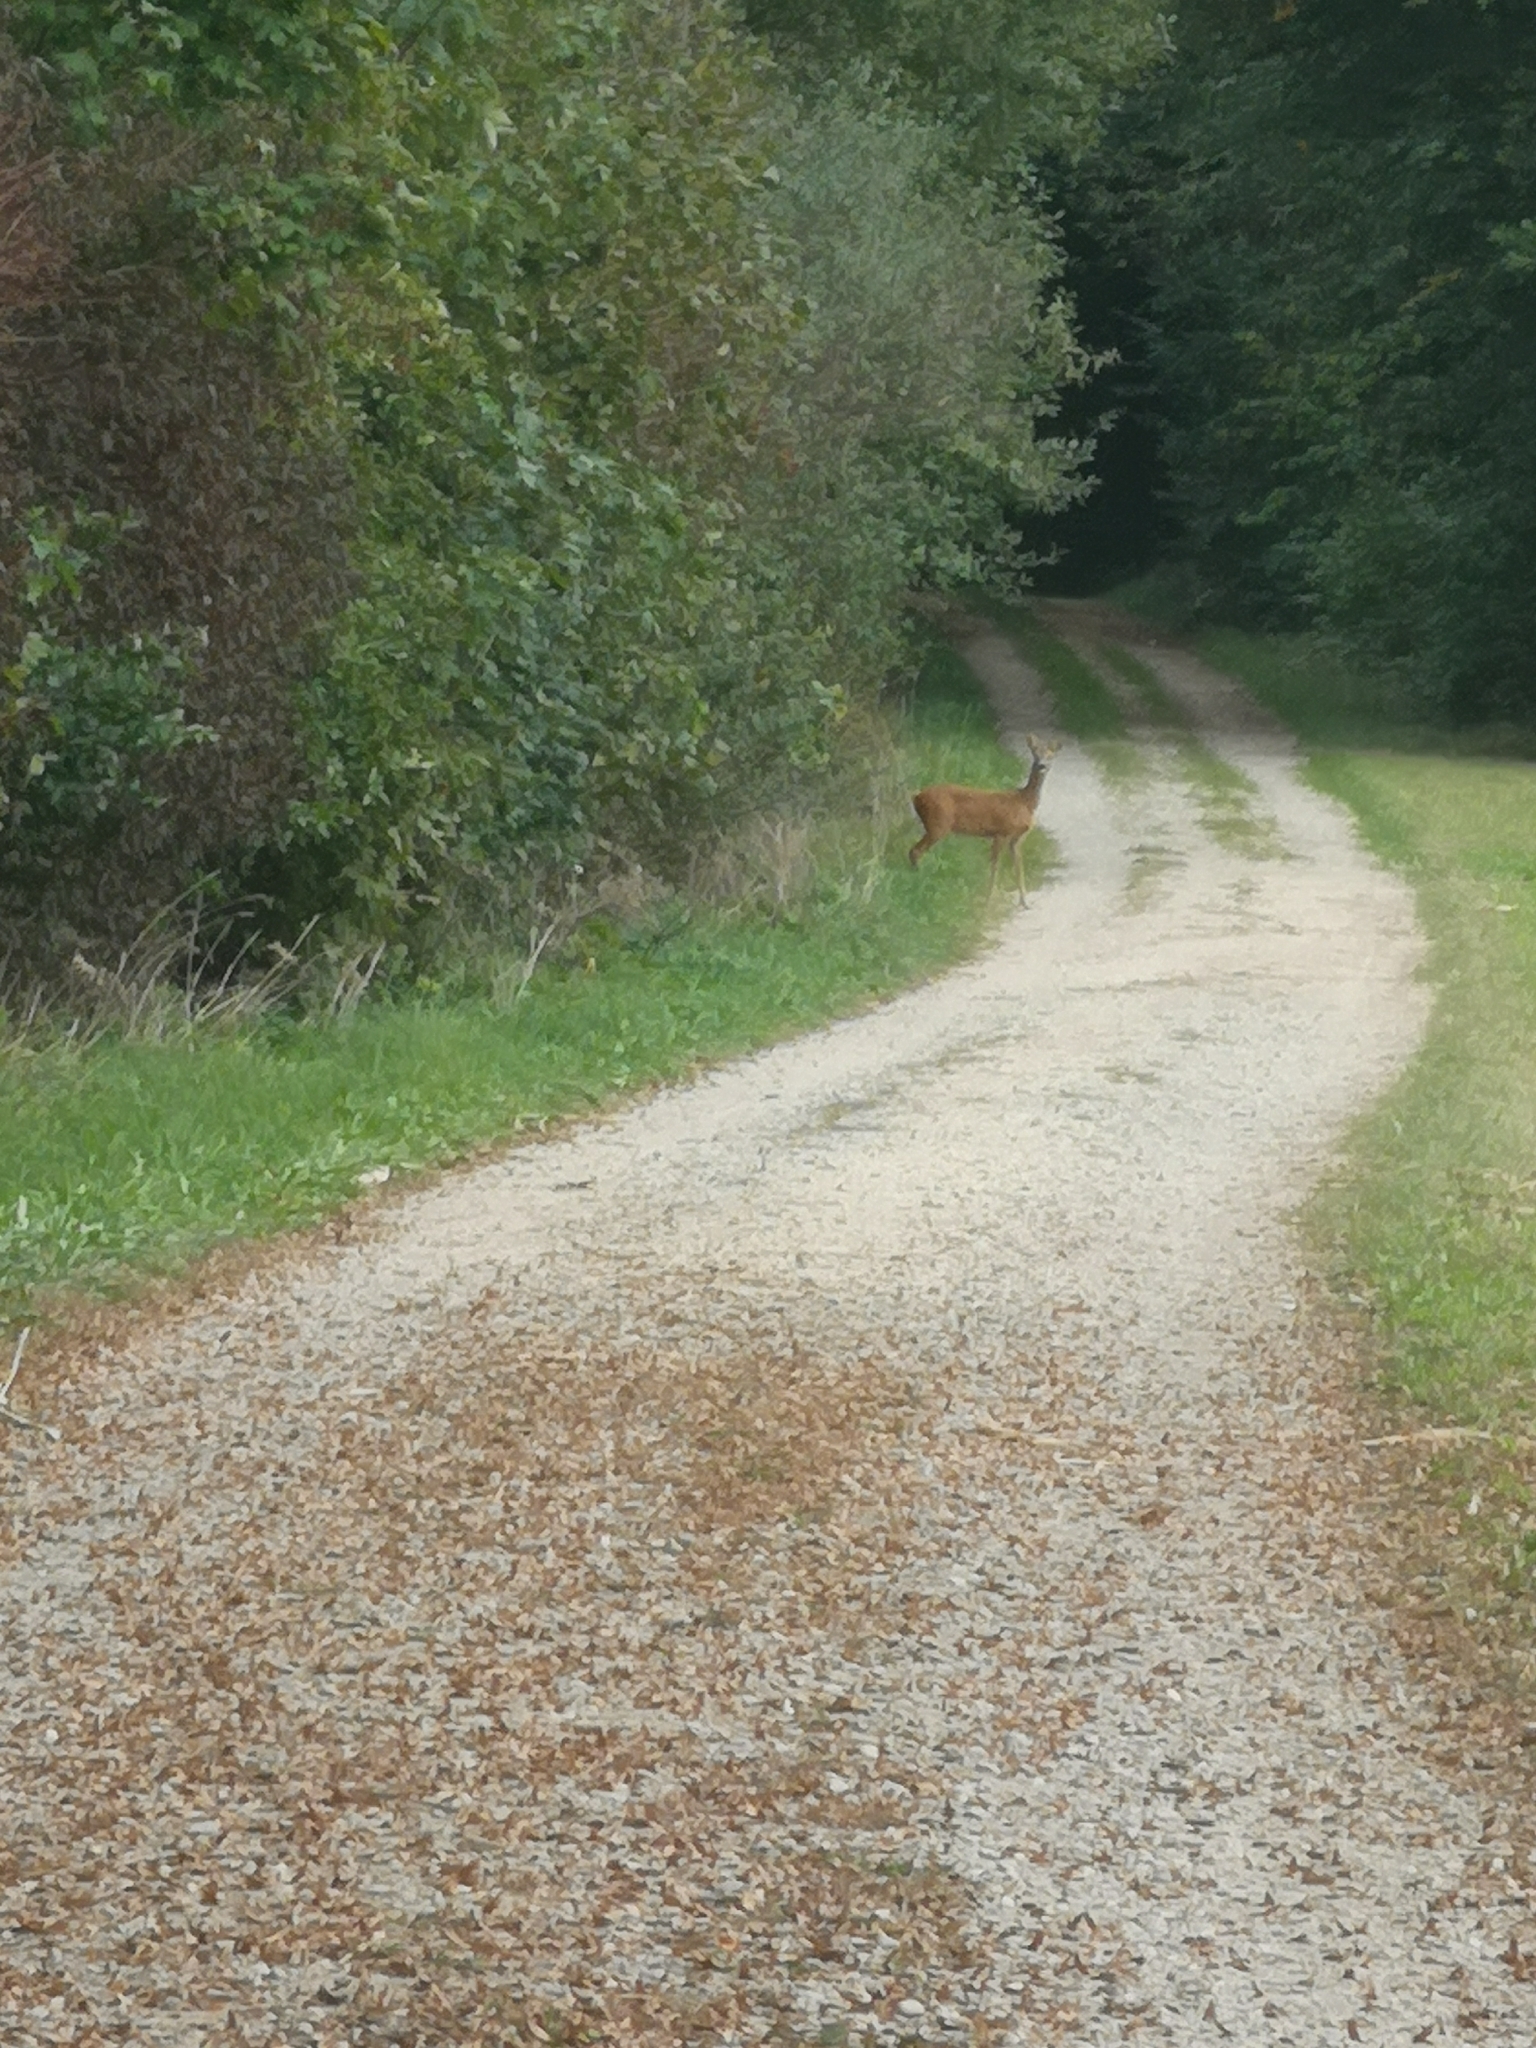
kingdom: Animalia
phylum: Chordata
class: Mammalia
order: Artiodactyla
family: Cervidae
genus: Capreolus
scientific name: Capreolus capreolus
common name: Western roe deer
